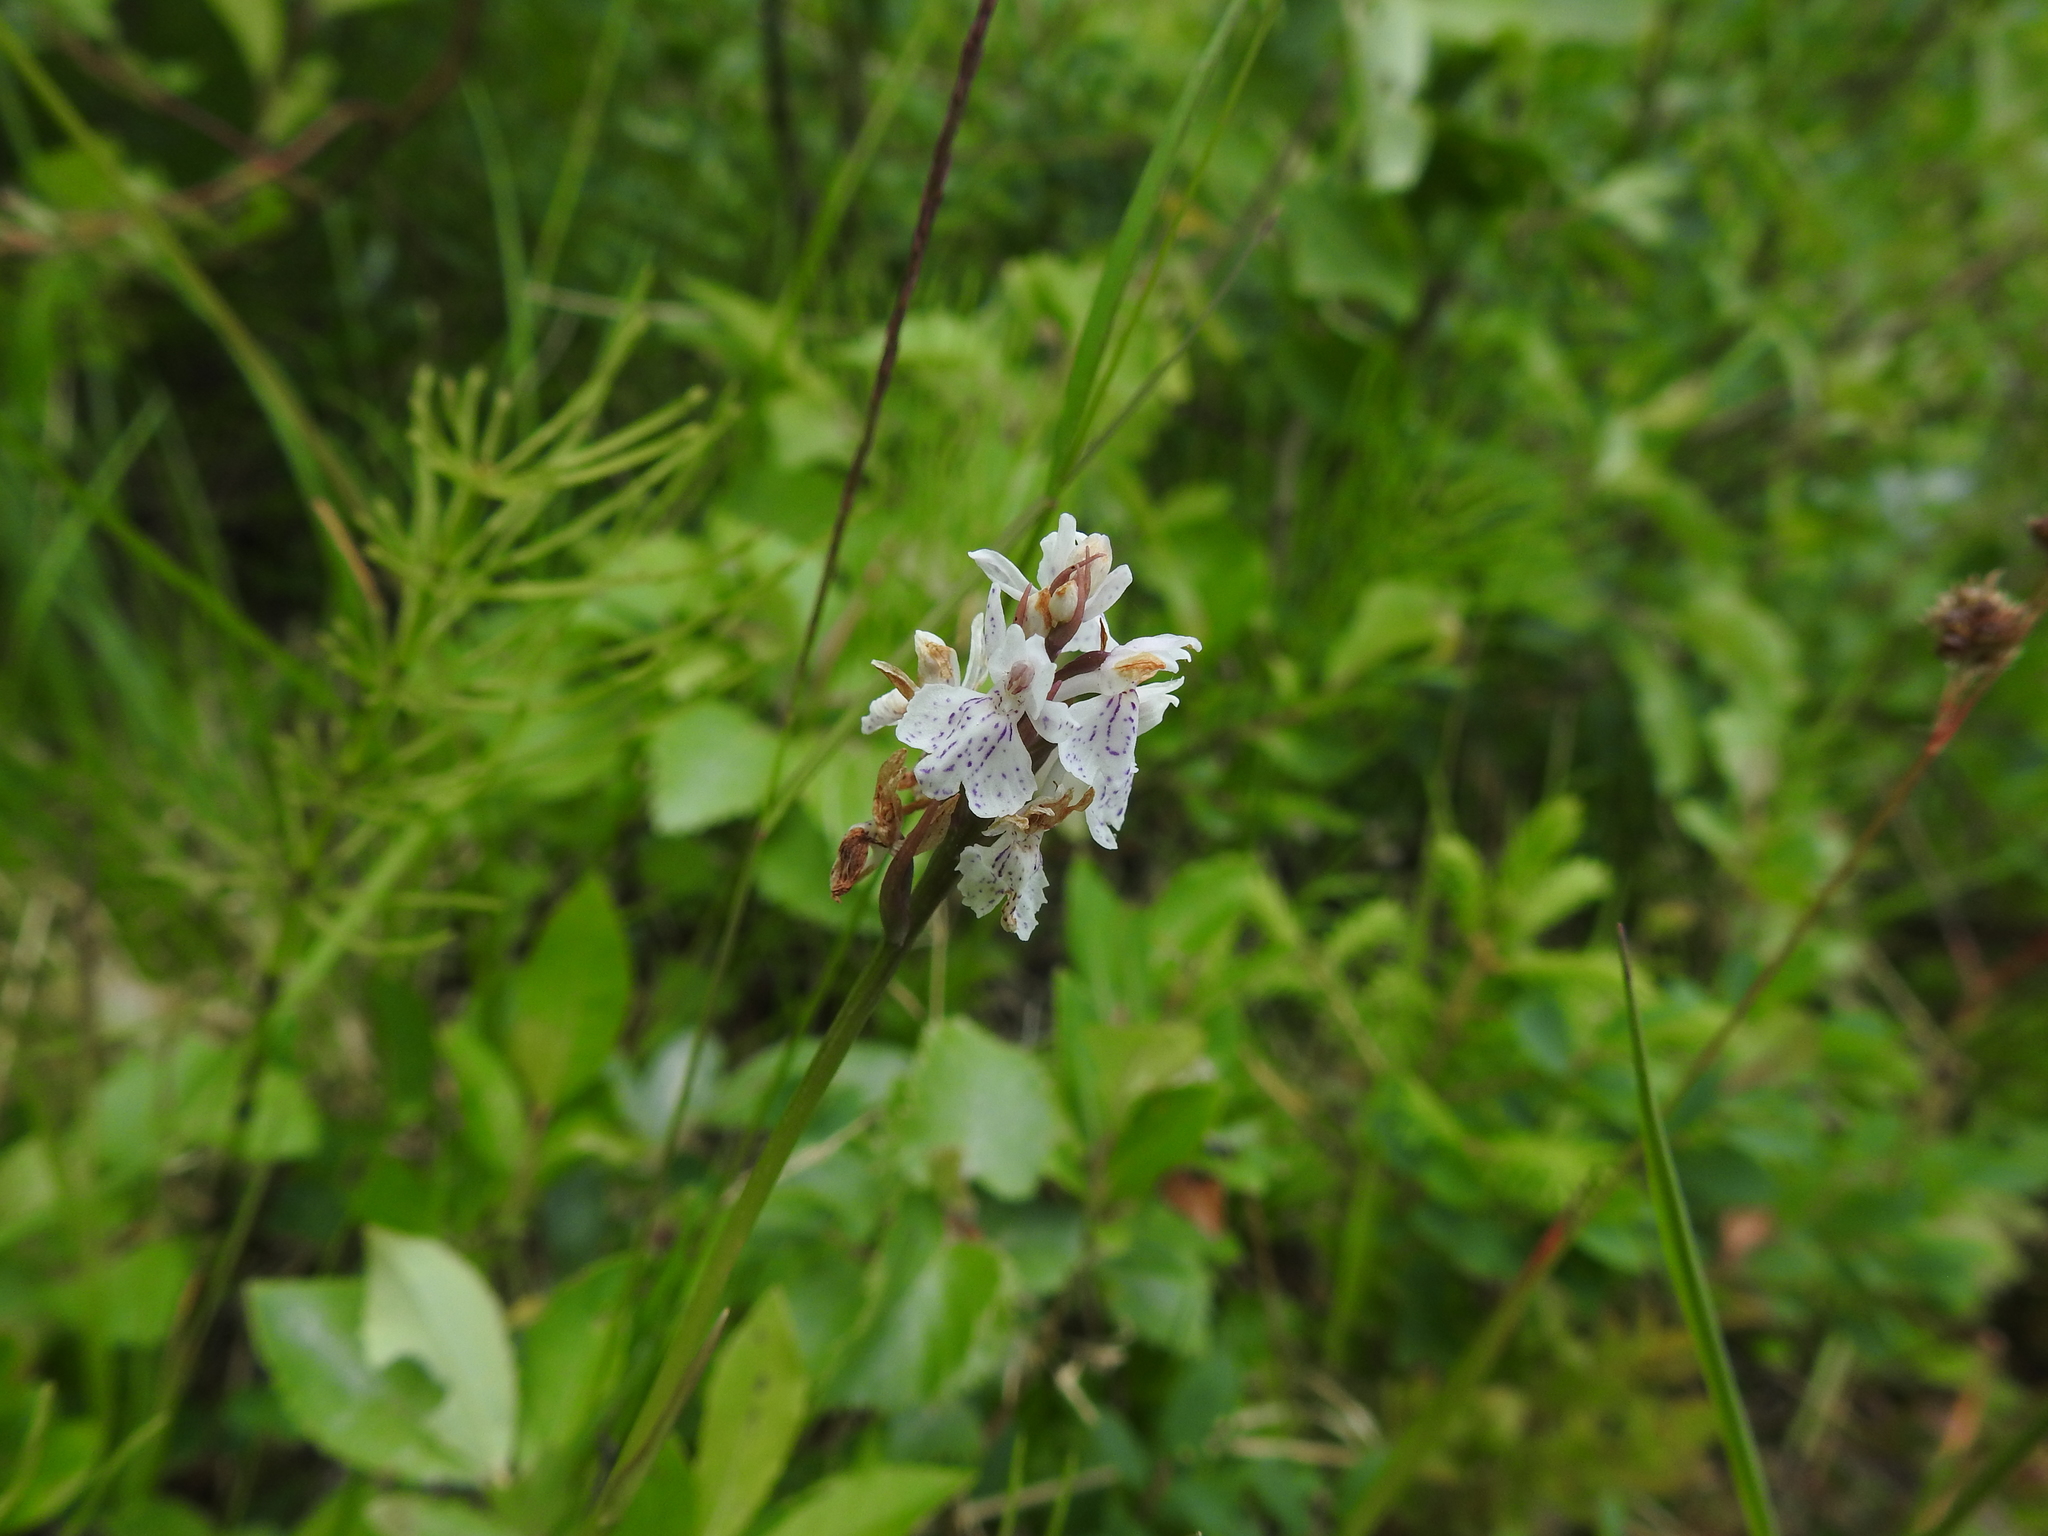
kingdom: Plantae
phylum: Tracheophyta
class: Liliopsida
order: Asparagales
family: Orchidaceae
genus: Dactylorhiza
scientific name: Dactylorhiza maculata
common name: Heath spotted-orchid
